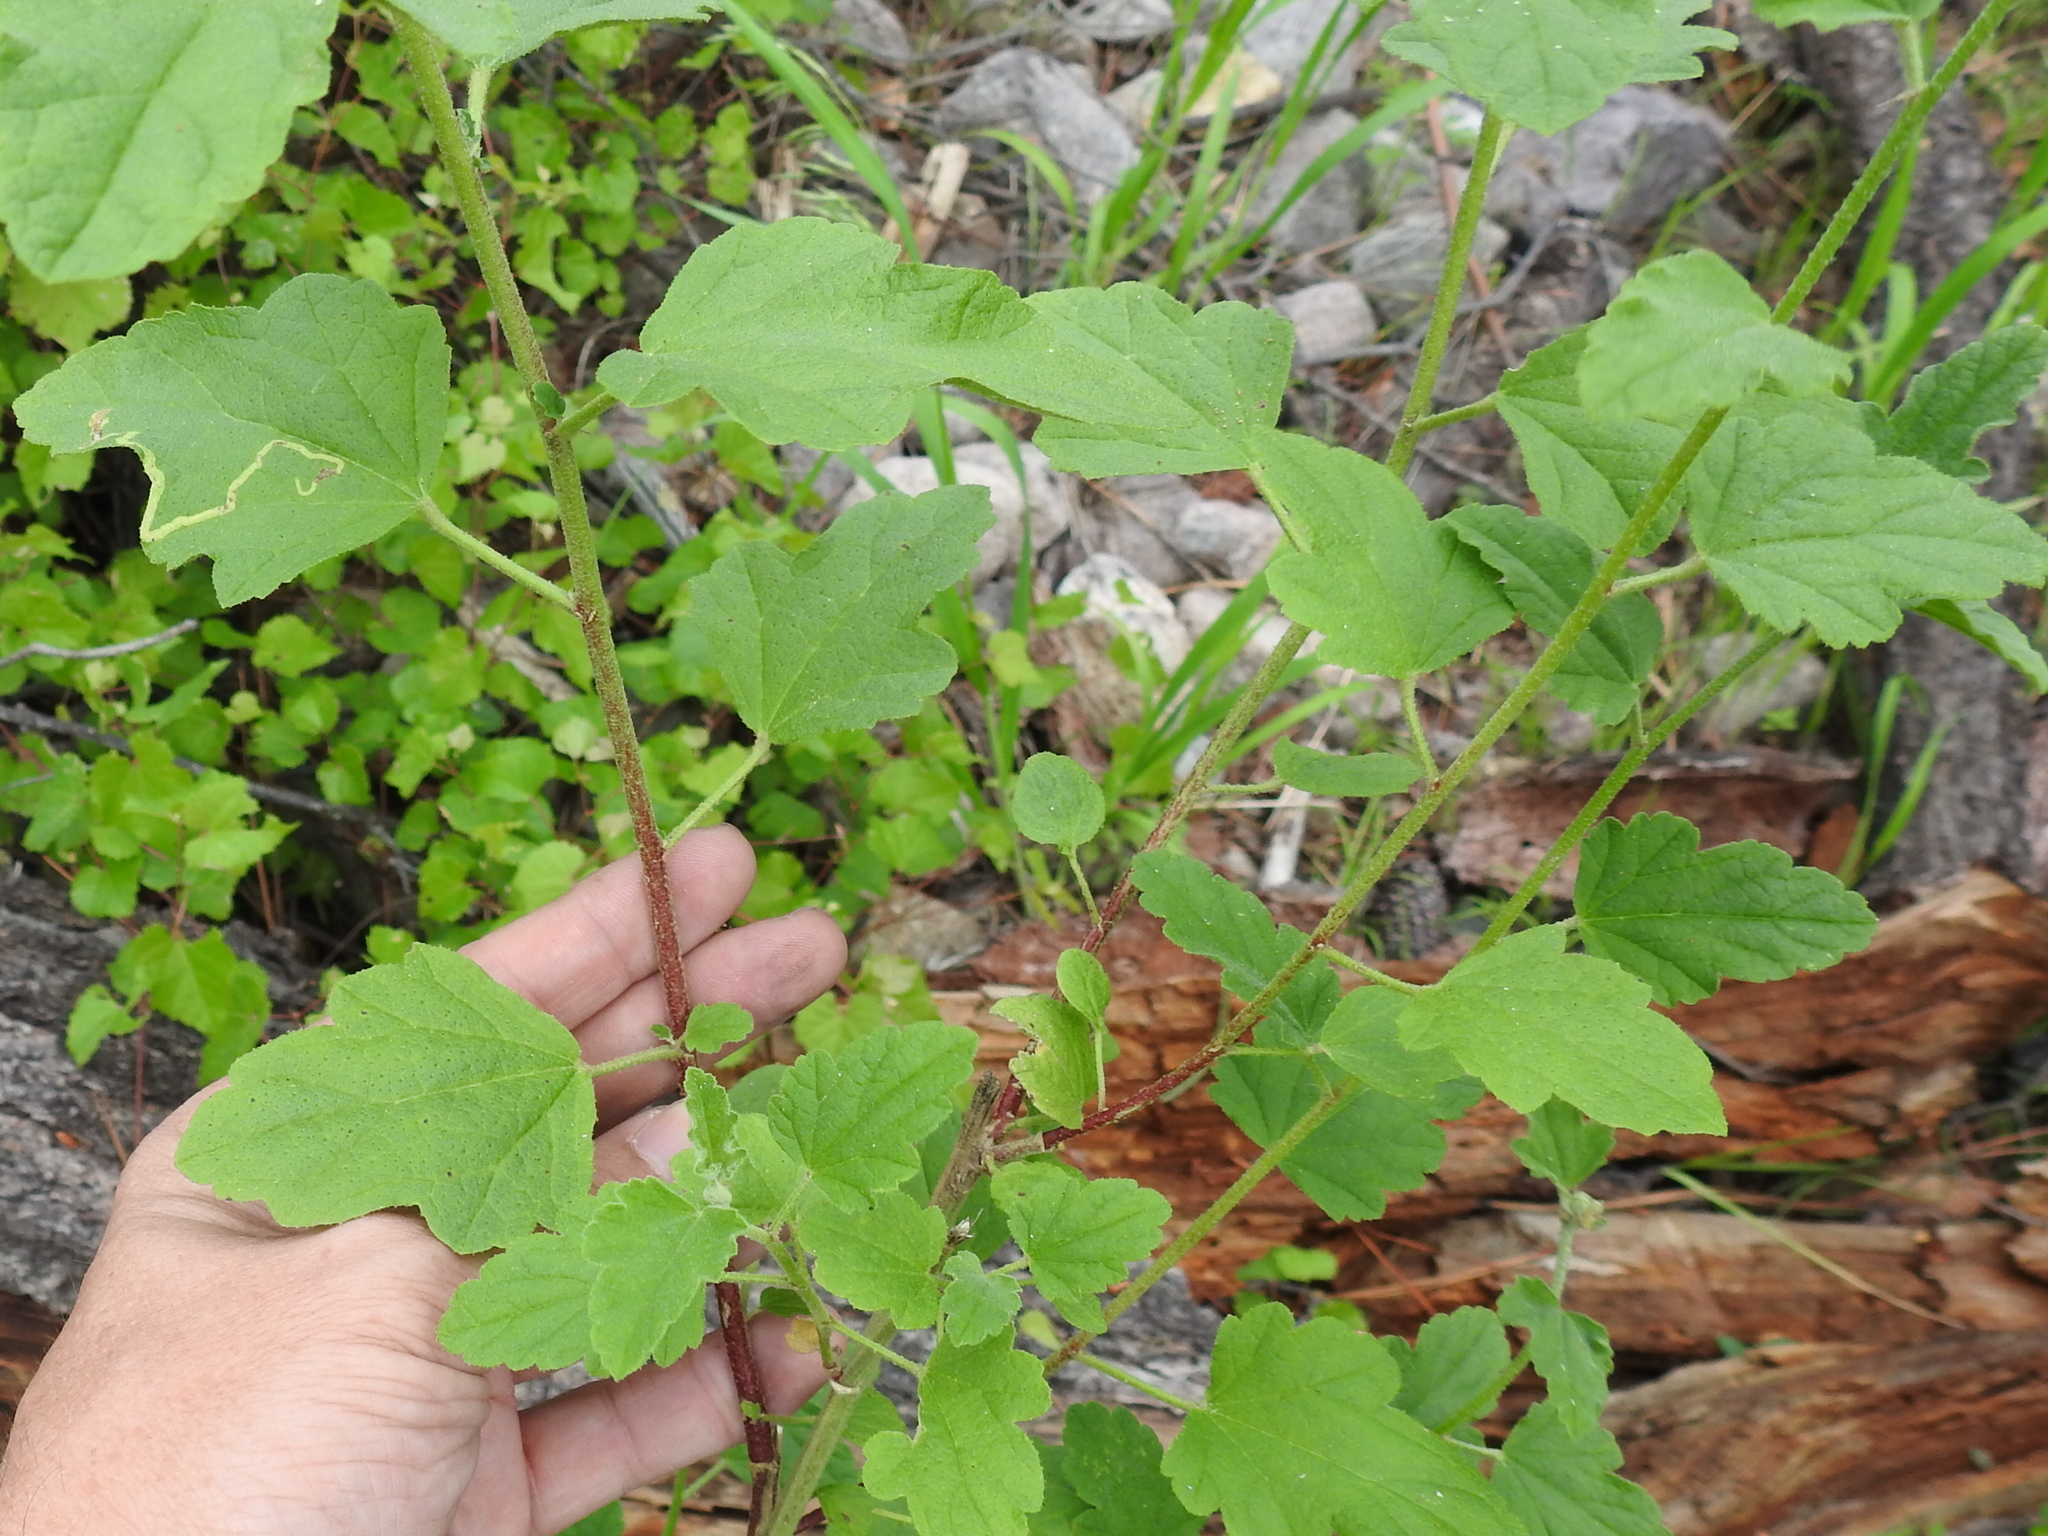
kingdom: Plantae
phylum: Tracheophyta
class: Magnoliopsida
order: Malvales
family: Malvaceae
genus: Sphaeralcea
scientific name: Sphaeralcea fendleri
